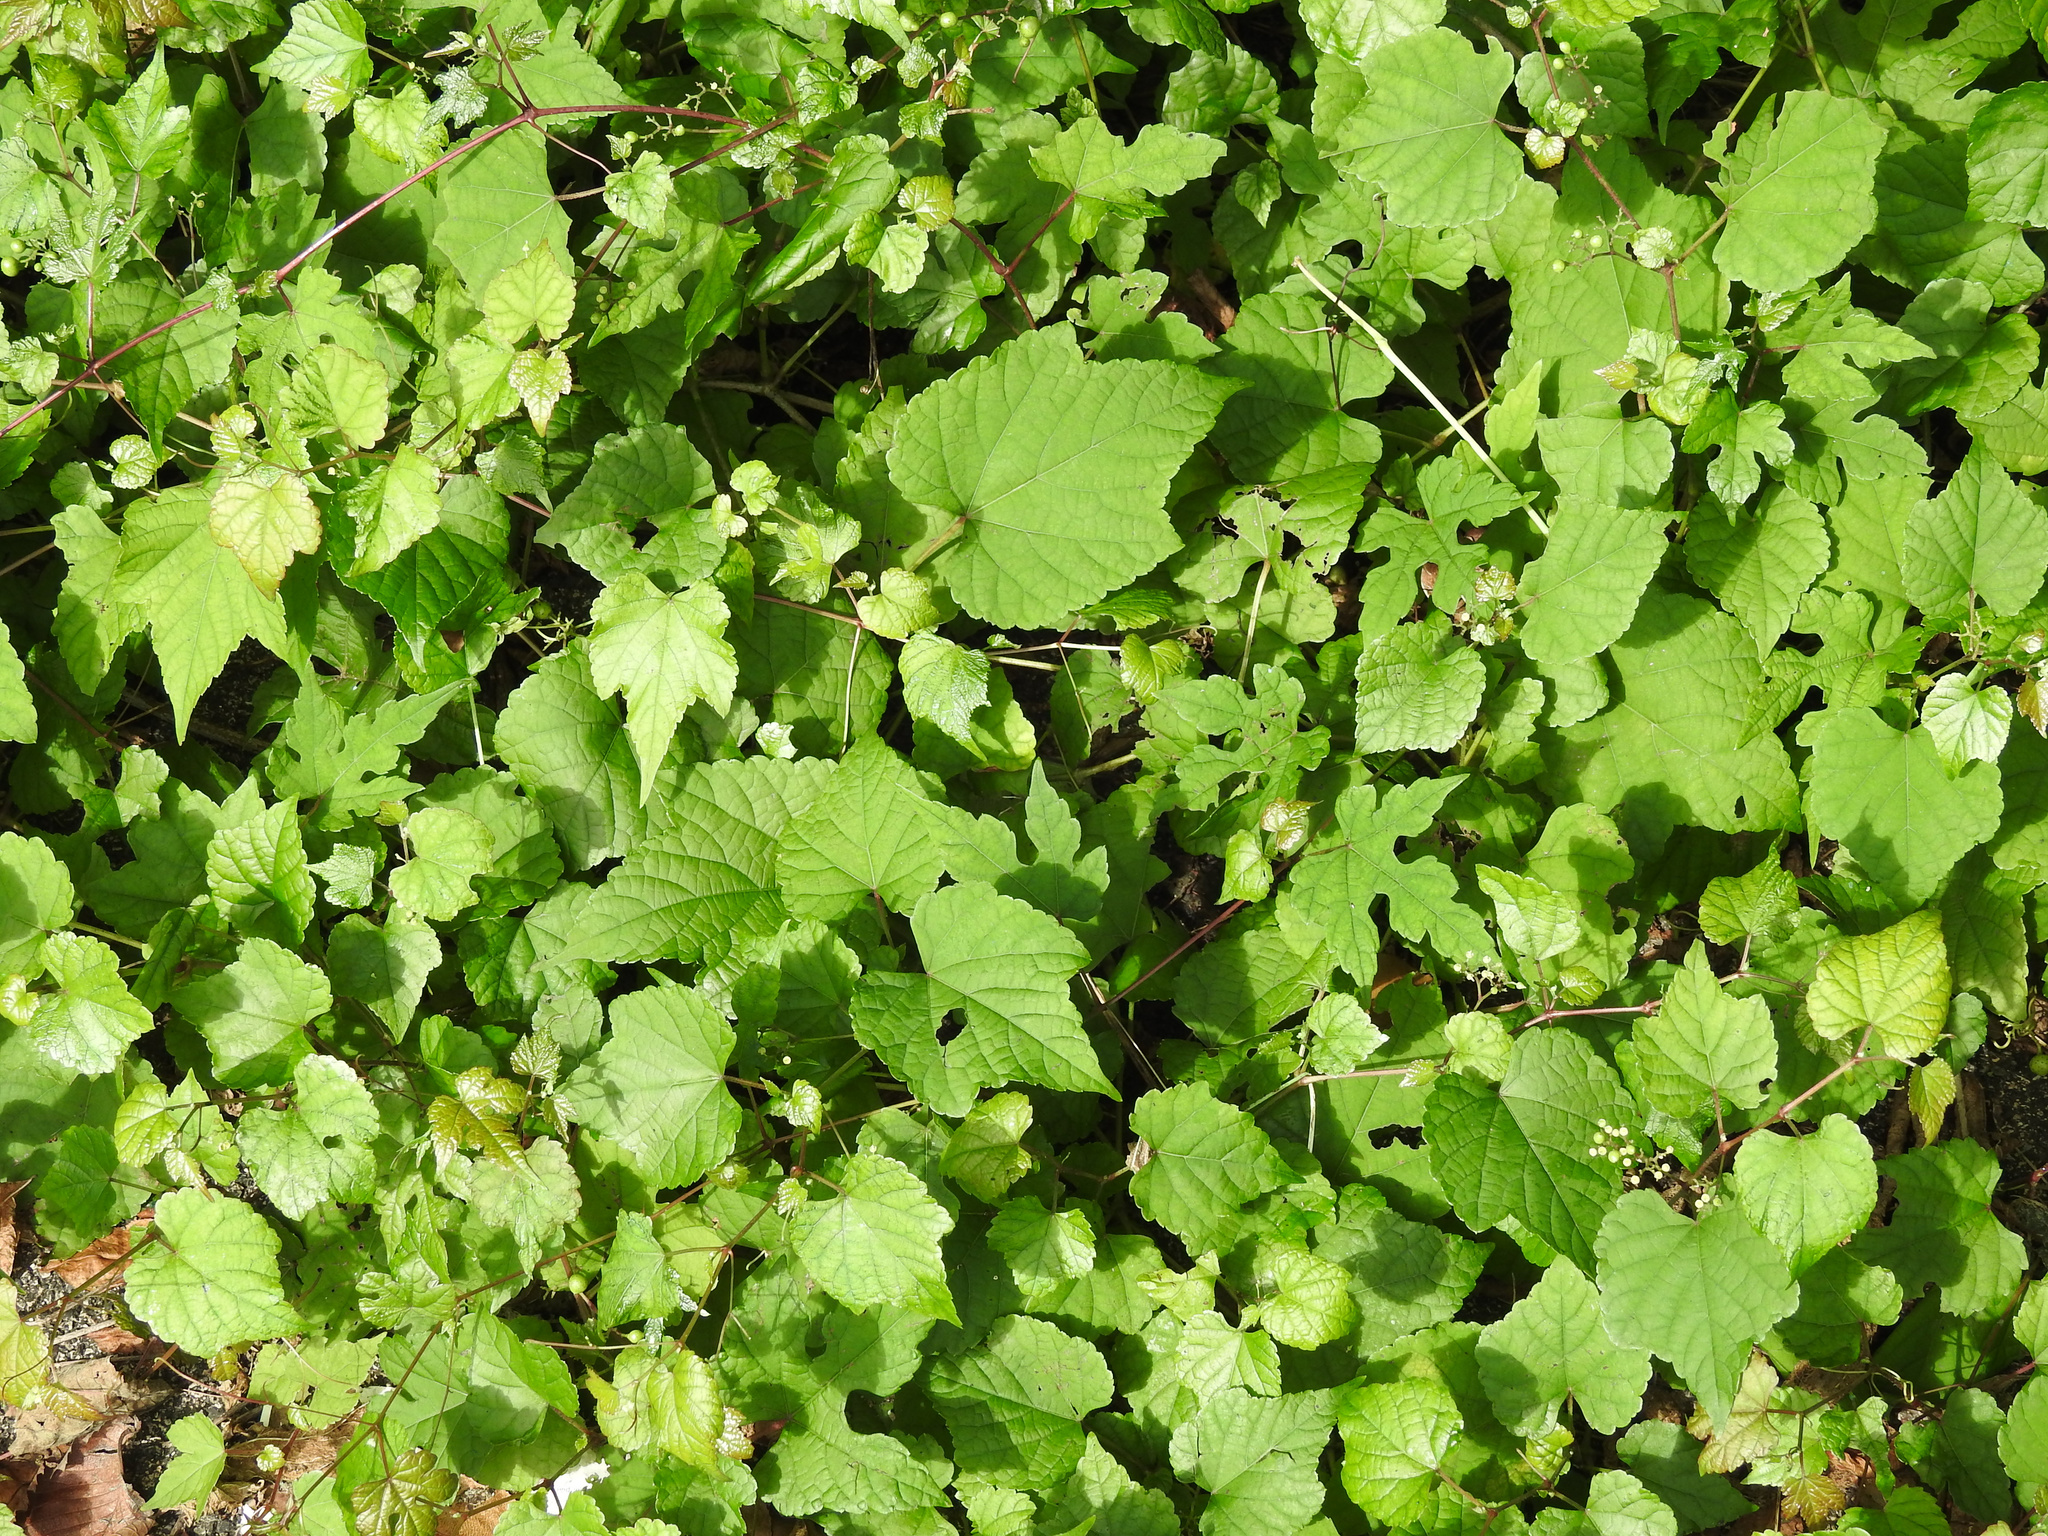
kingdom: Plantae
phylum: Tracheophyta
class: Magnoliopsida
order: Vitales
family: Vitaceae
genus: Ampelopsis
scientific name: Ampelopsis glandulosa
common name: Amur peppervine
